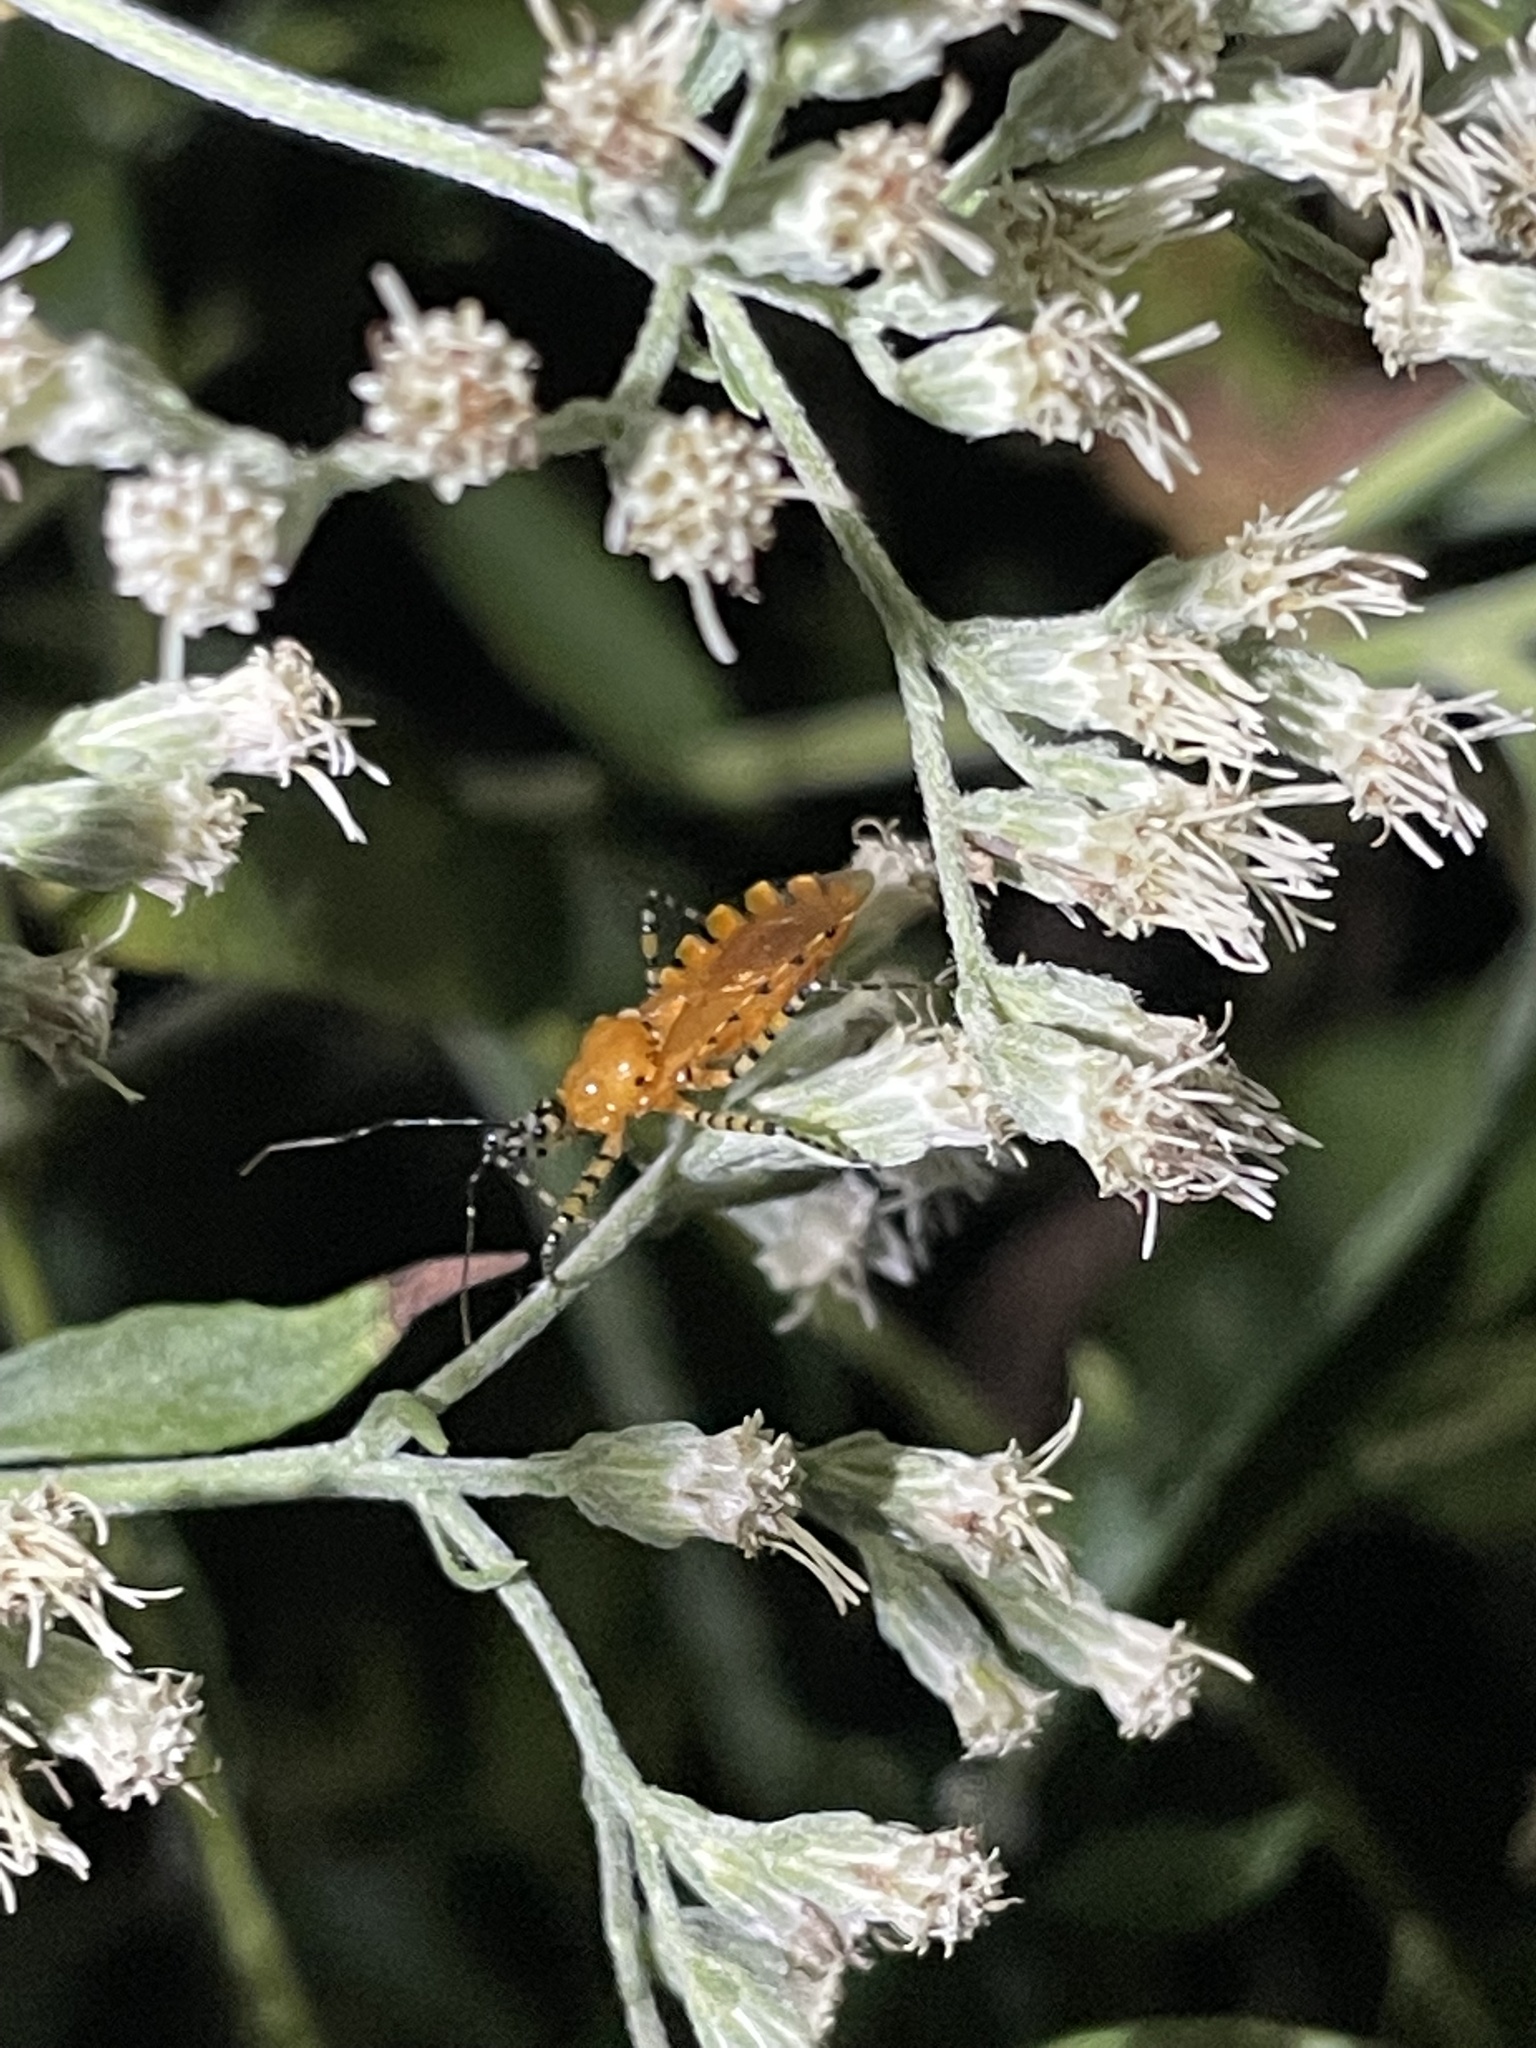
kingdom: Animalia
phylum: Arthropoda
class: Insecta
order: Hemiptera
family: Reduviidae
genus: Pselliopus
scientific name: Pselliopus barberi
